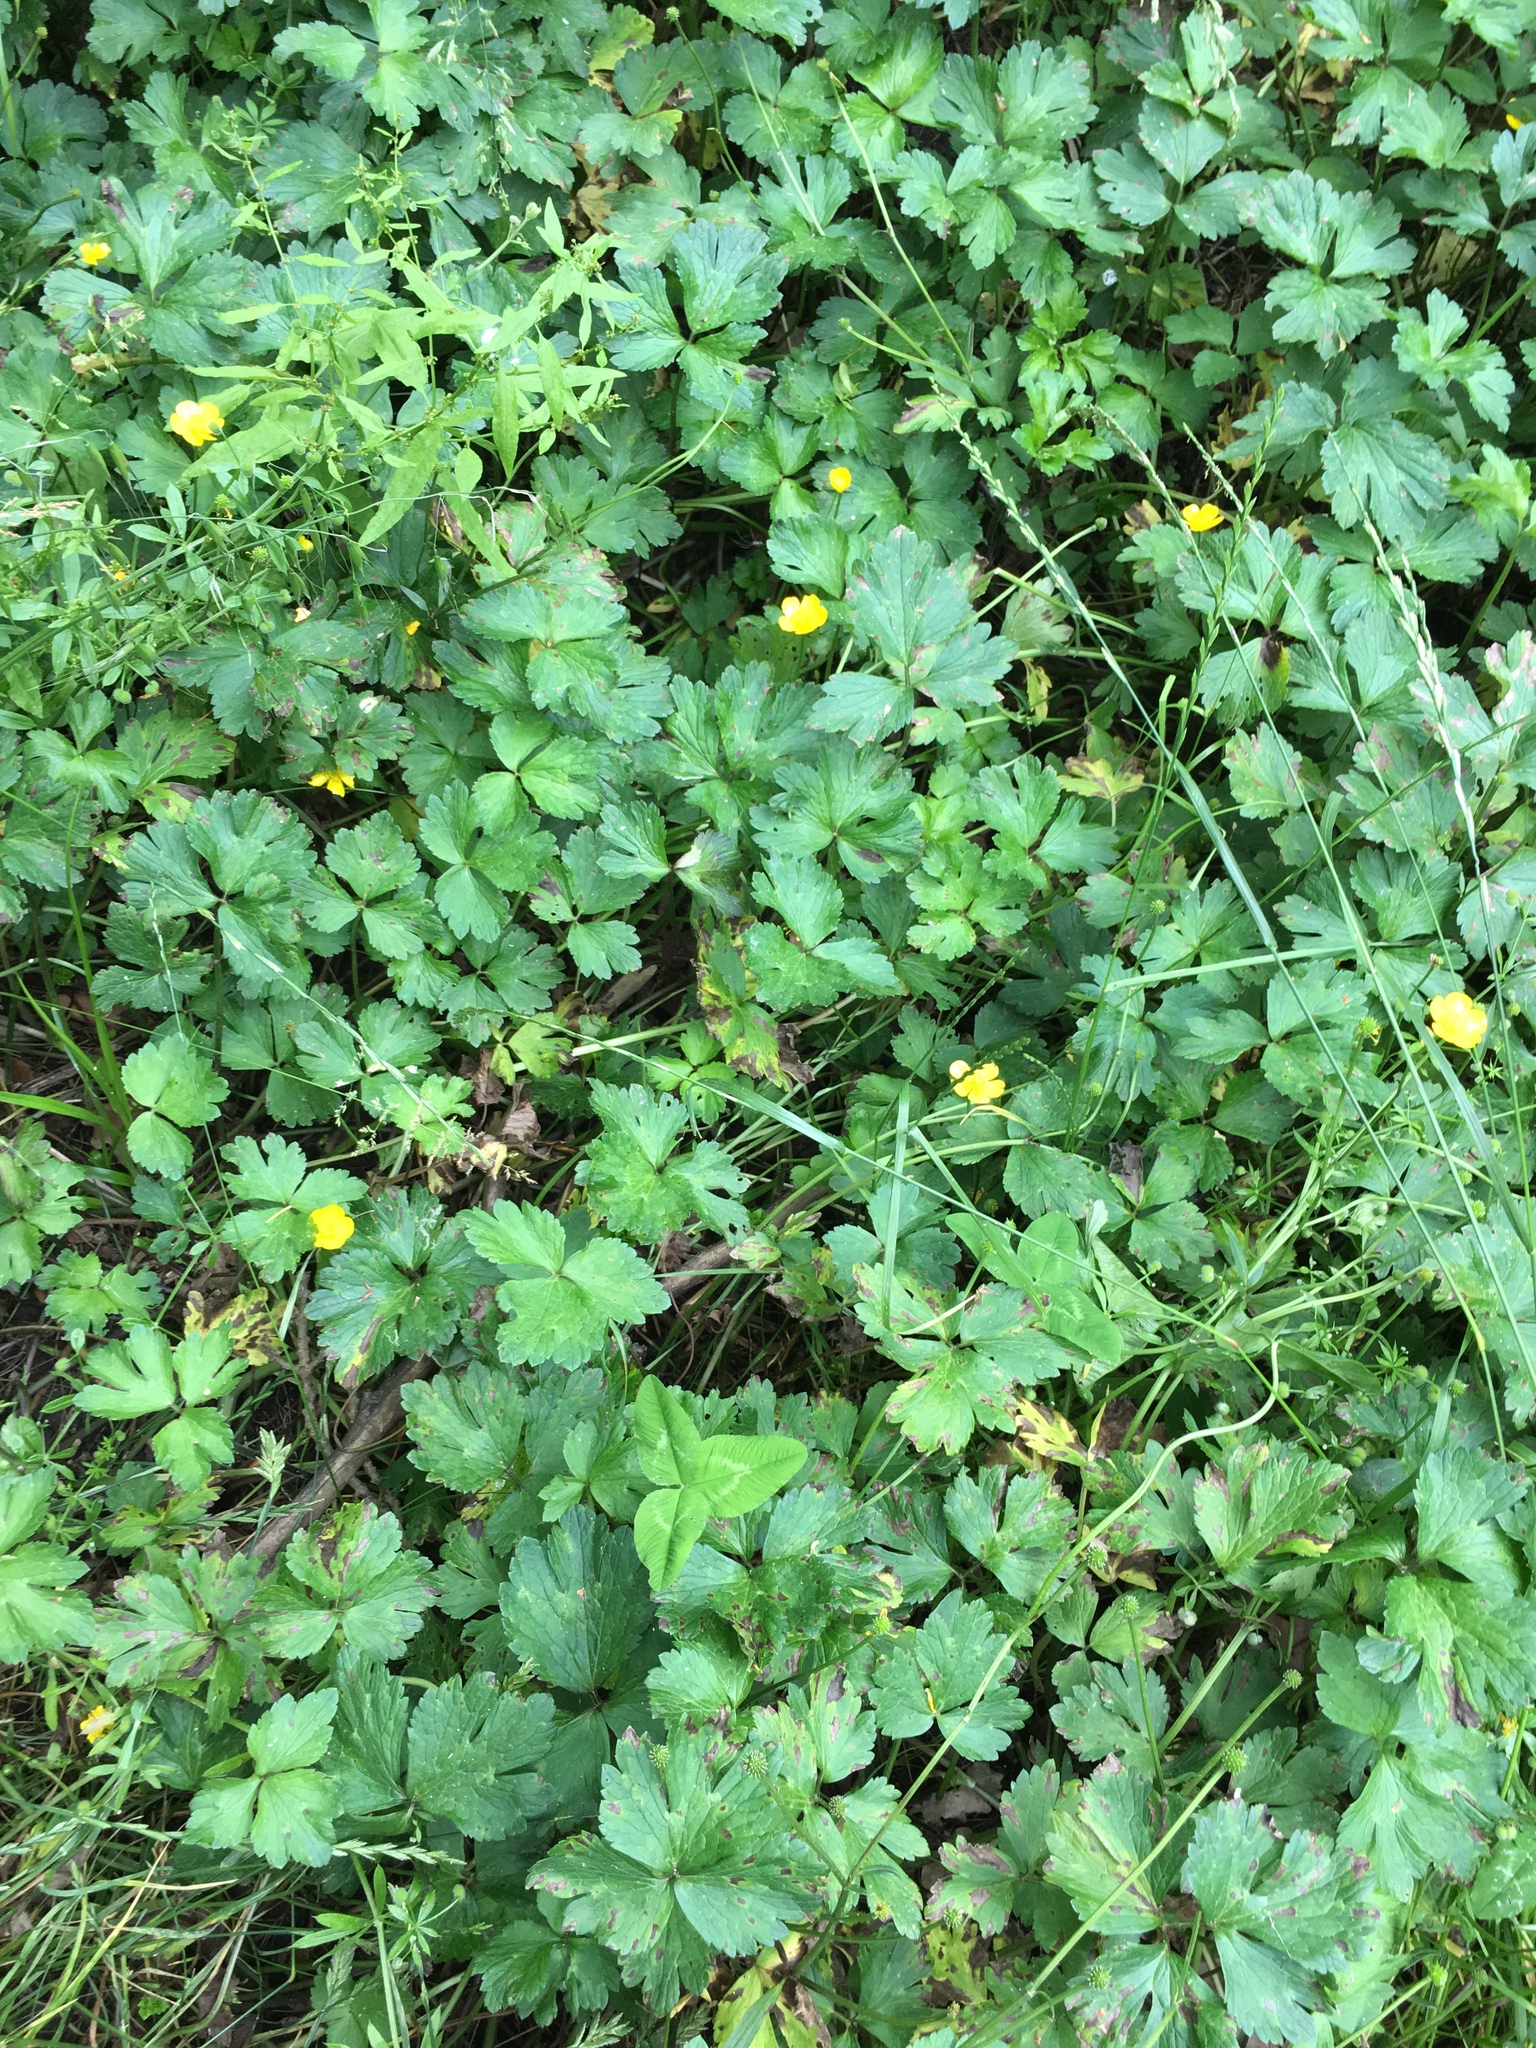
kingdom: Plantae
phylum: Tracheophyta
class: Magnoliopsida
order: Ranunculales
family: Ranunculaceae
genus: Ranunculus
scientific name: Ranunculus repens
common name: Creeping buttercup
